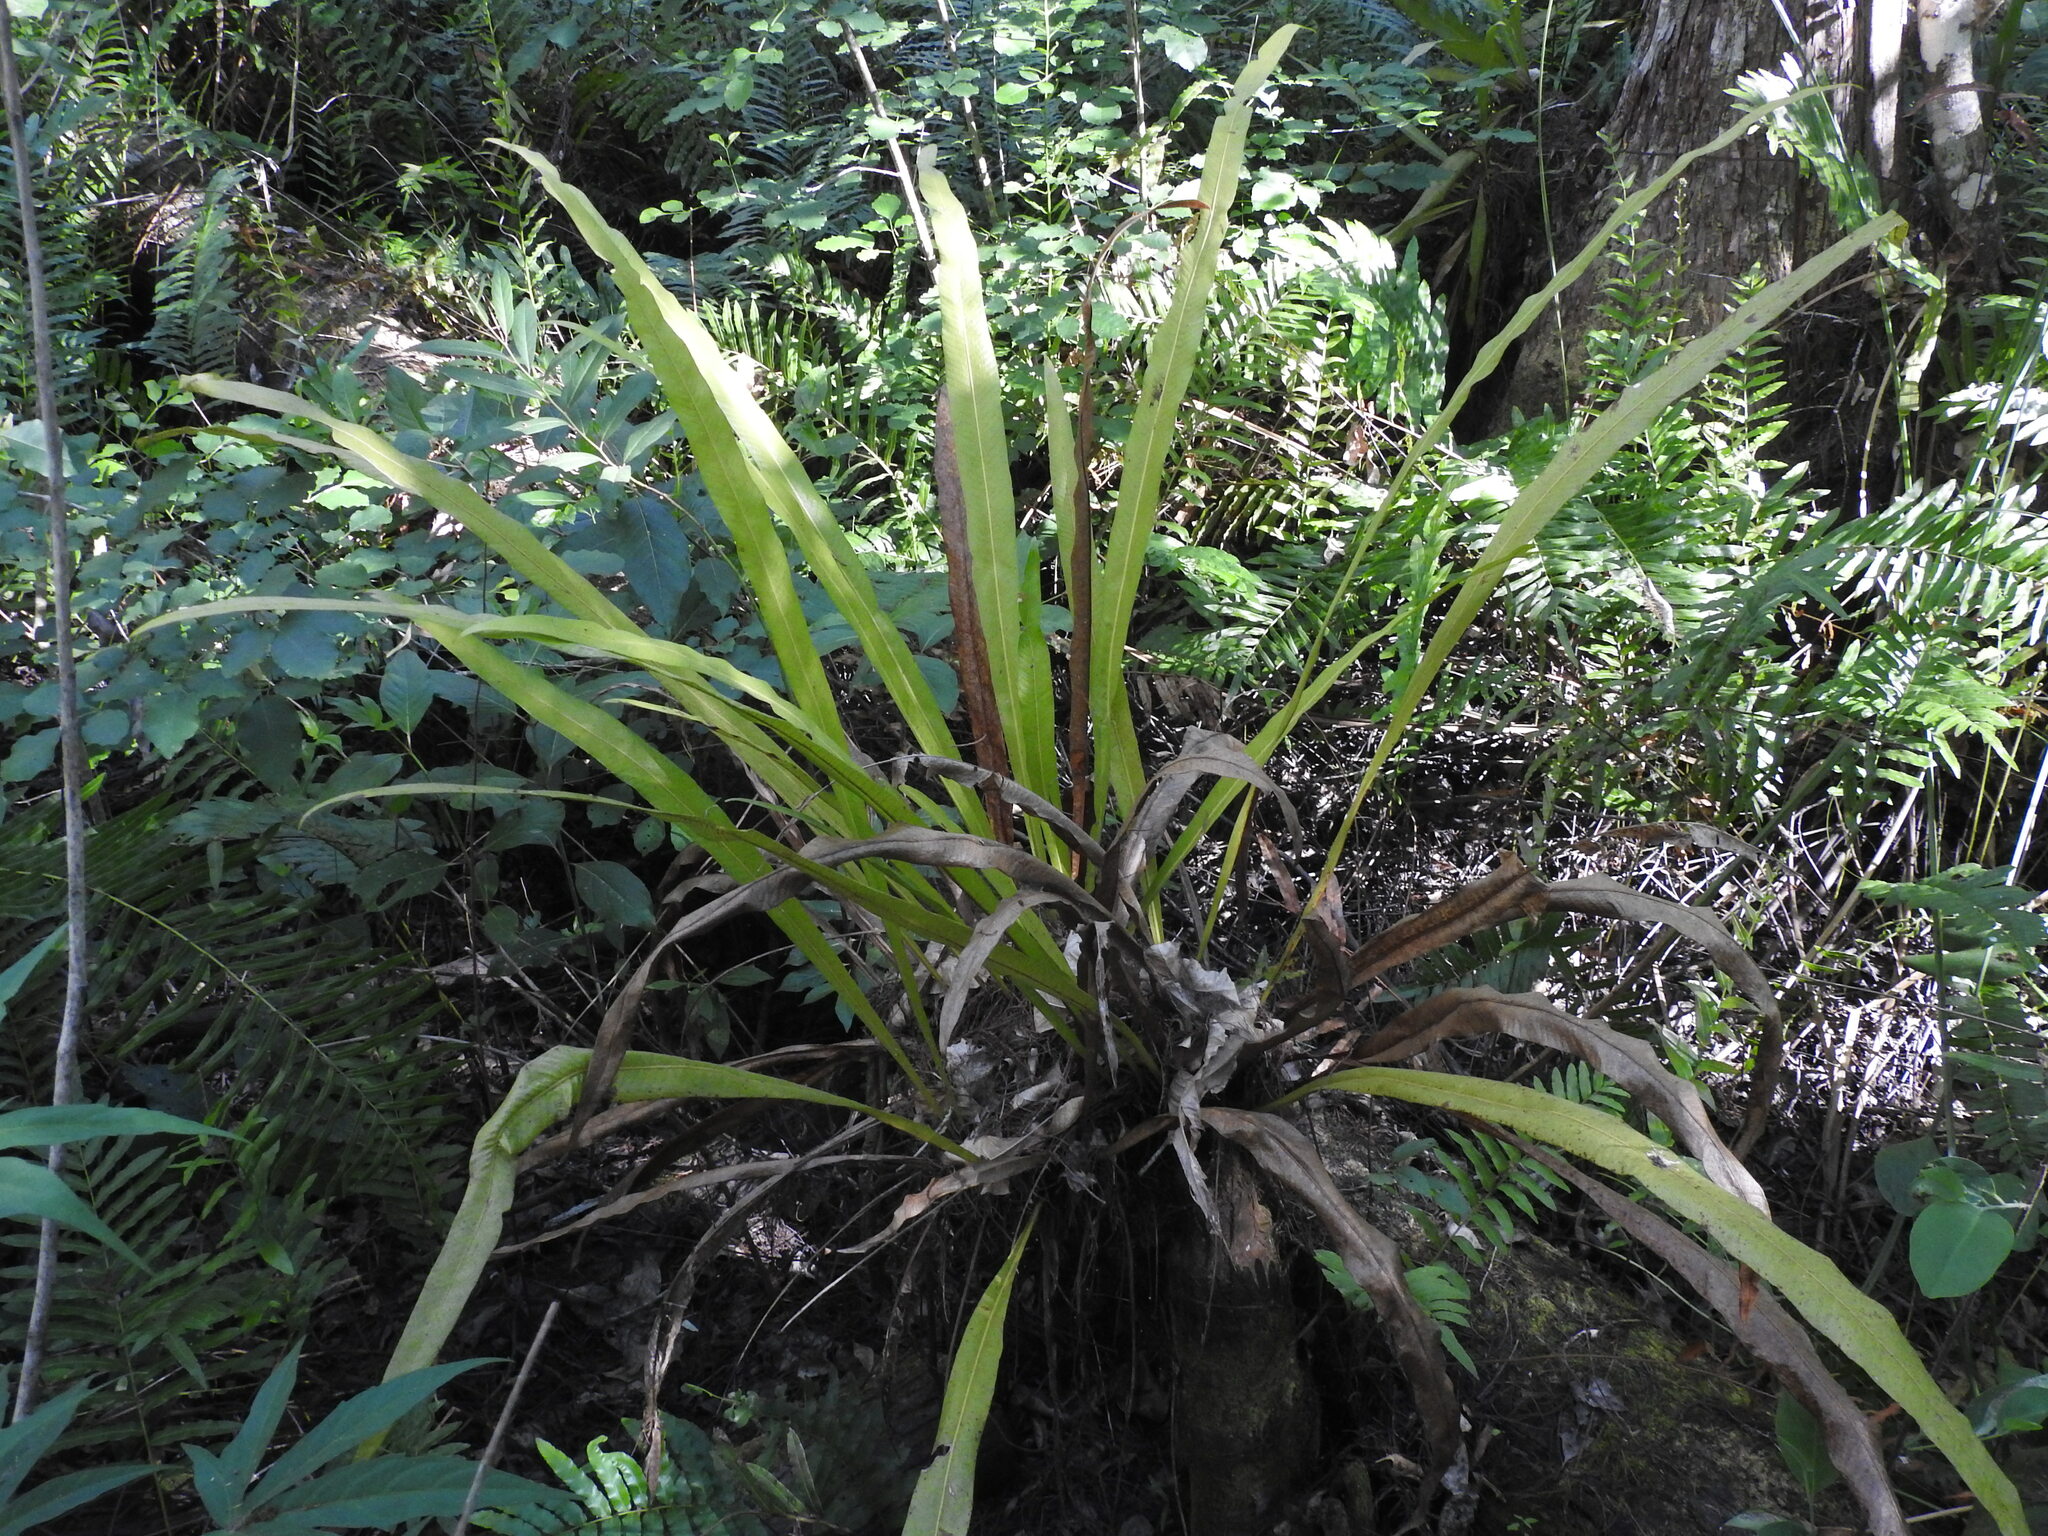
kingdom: Plantae
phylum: Tracheophyta
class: Polypodiopsida
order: Polypodiales
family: Polypodiaceae
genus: Campyloneurum
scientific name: Campyloneurum phyllitidis
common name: Cow-tongue fern
